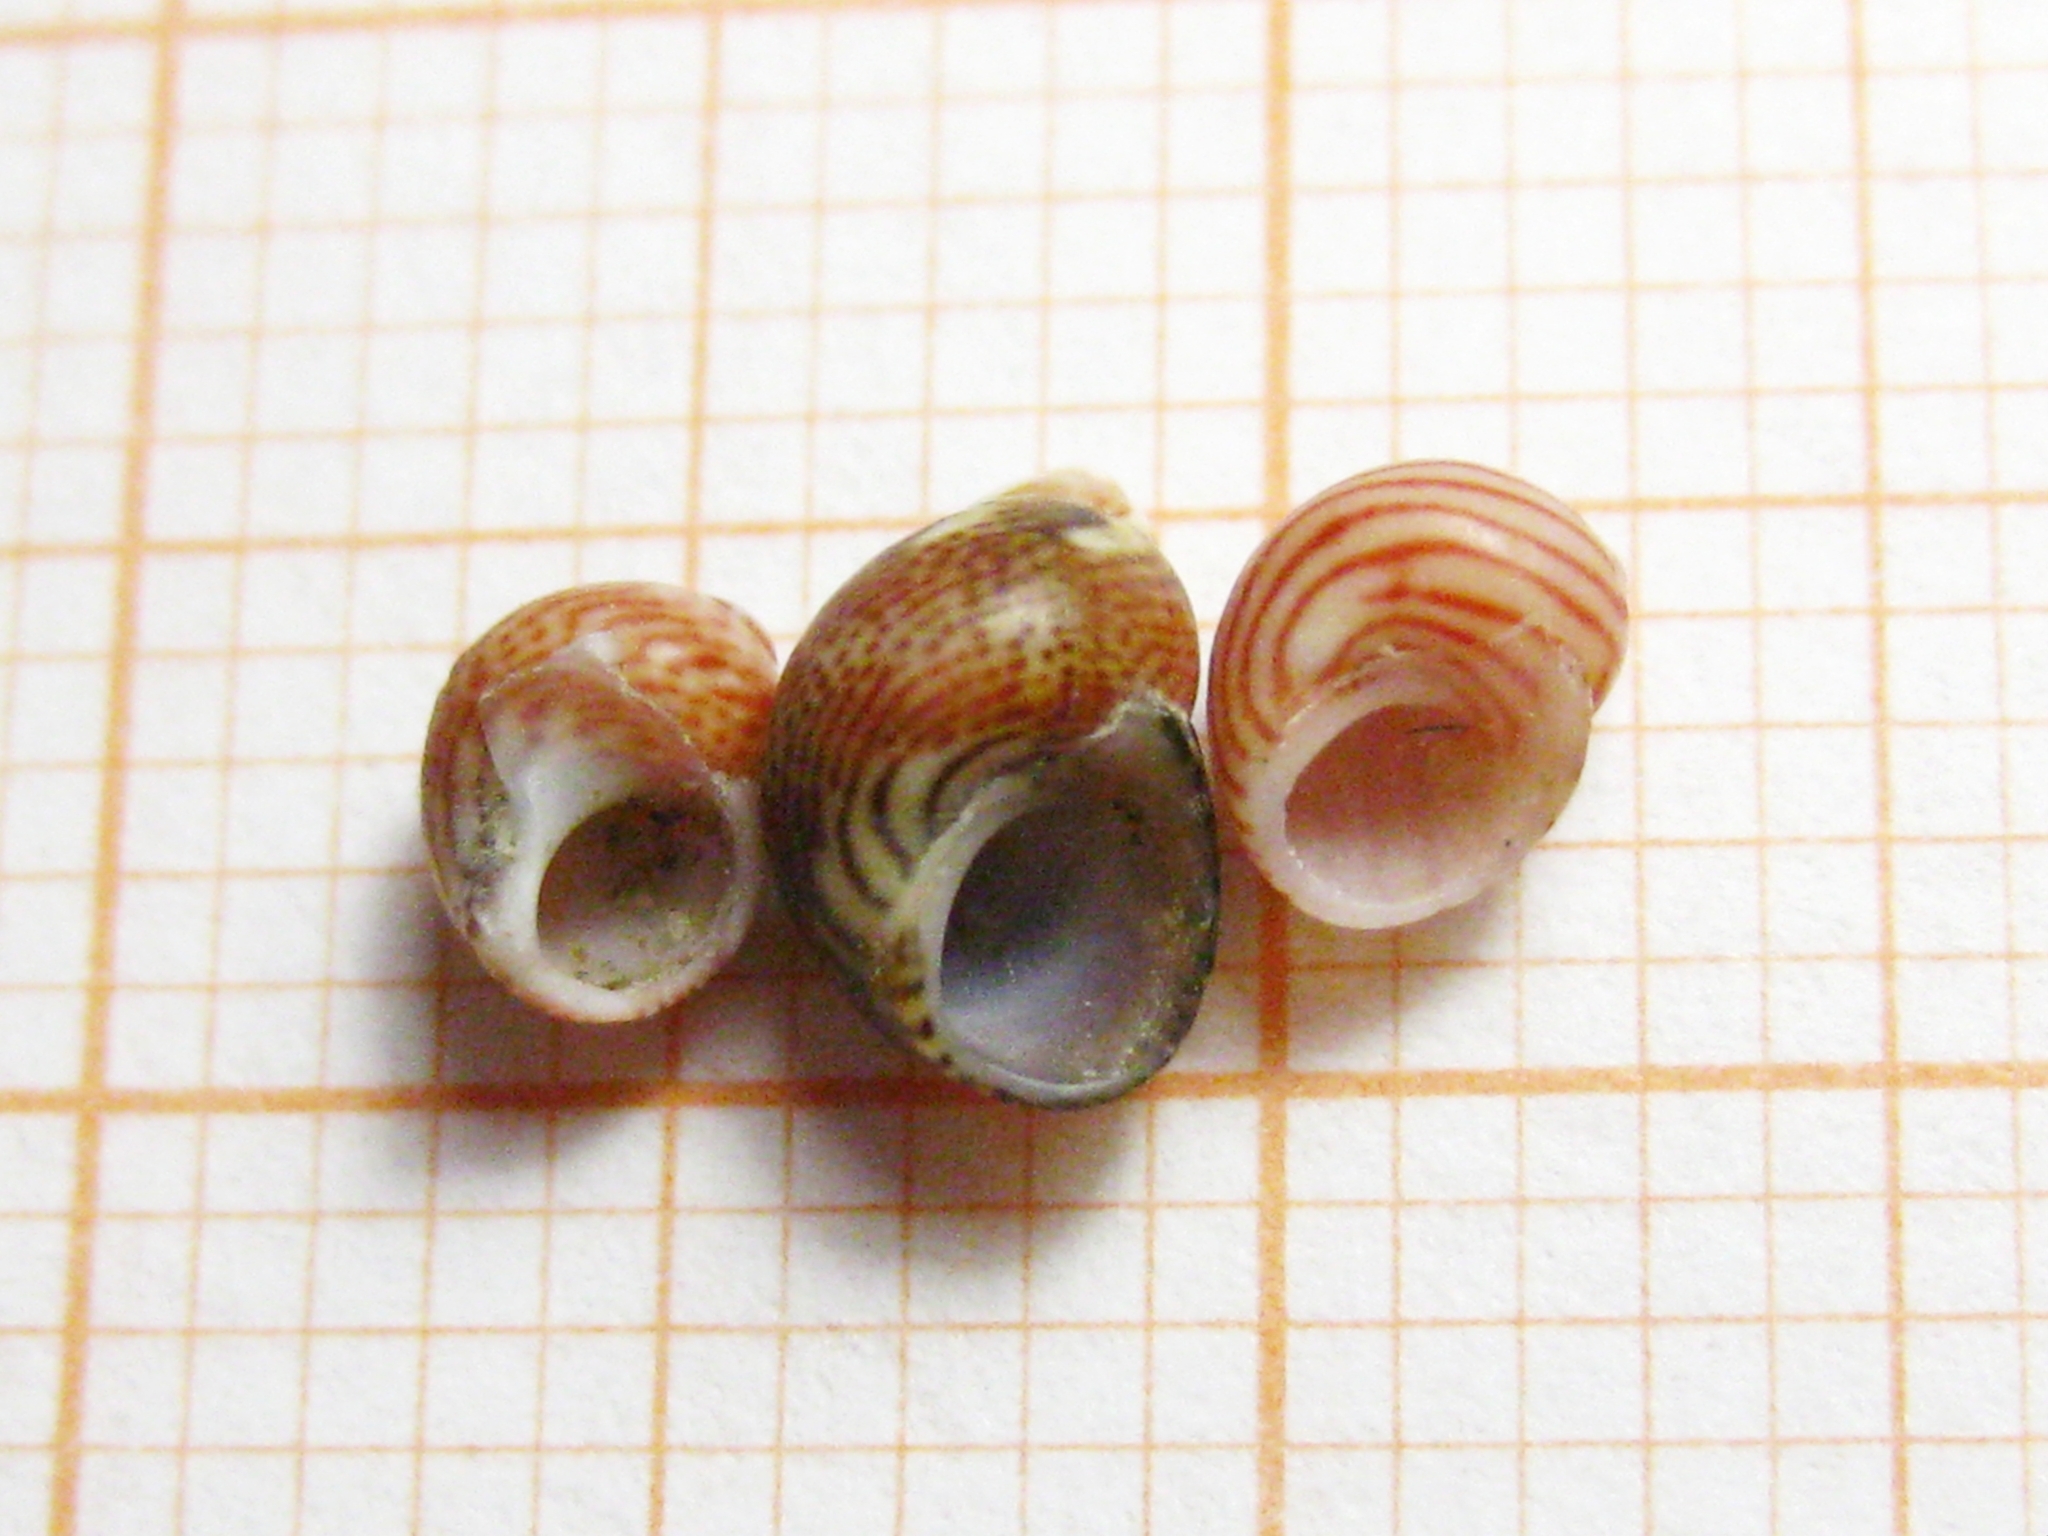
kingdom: Animalia
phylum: Mollusca
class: Gastropoda
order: Trochida
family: Phasianellidae
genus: Tricolia
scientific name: Tricolia pullus
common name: Pheasant shell
